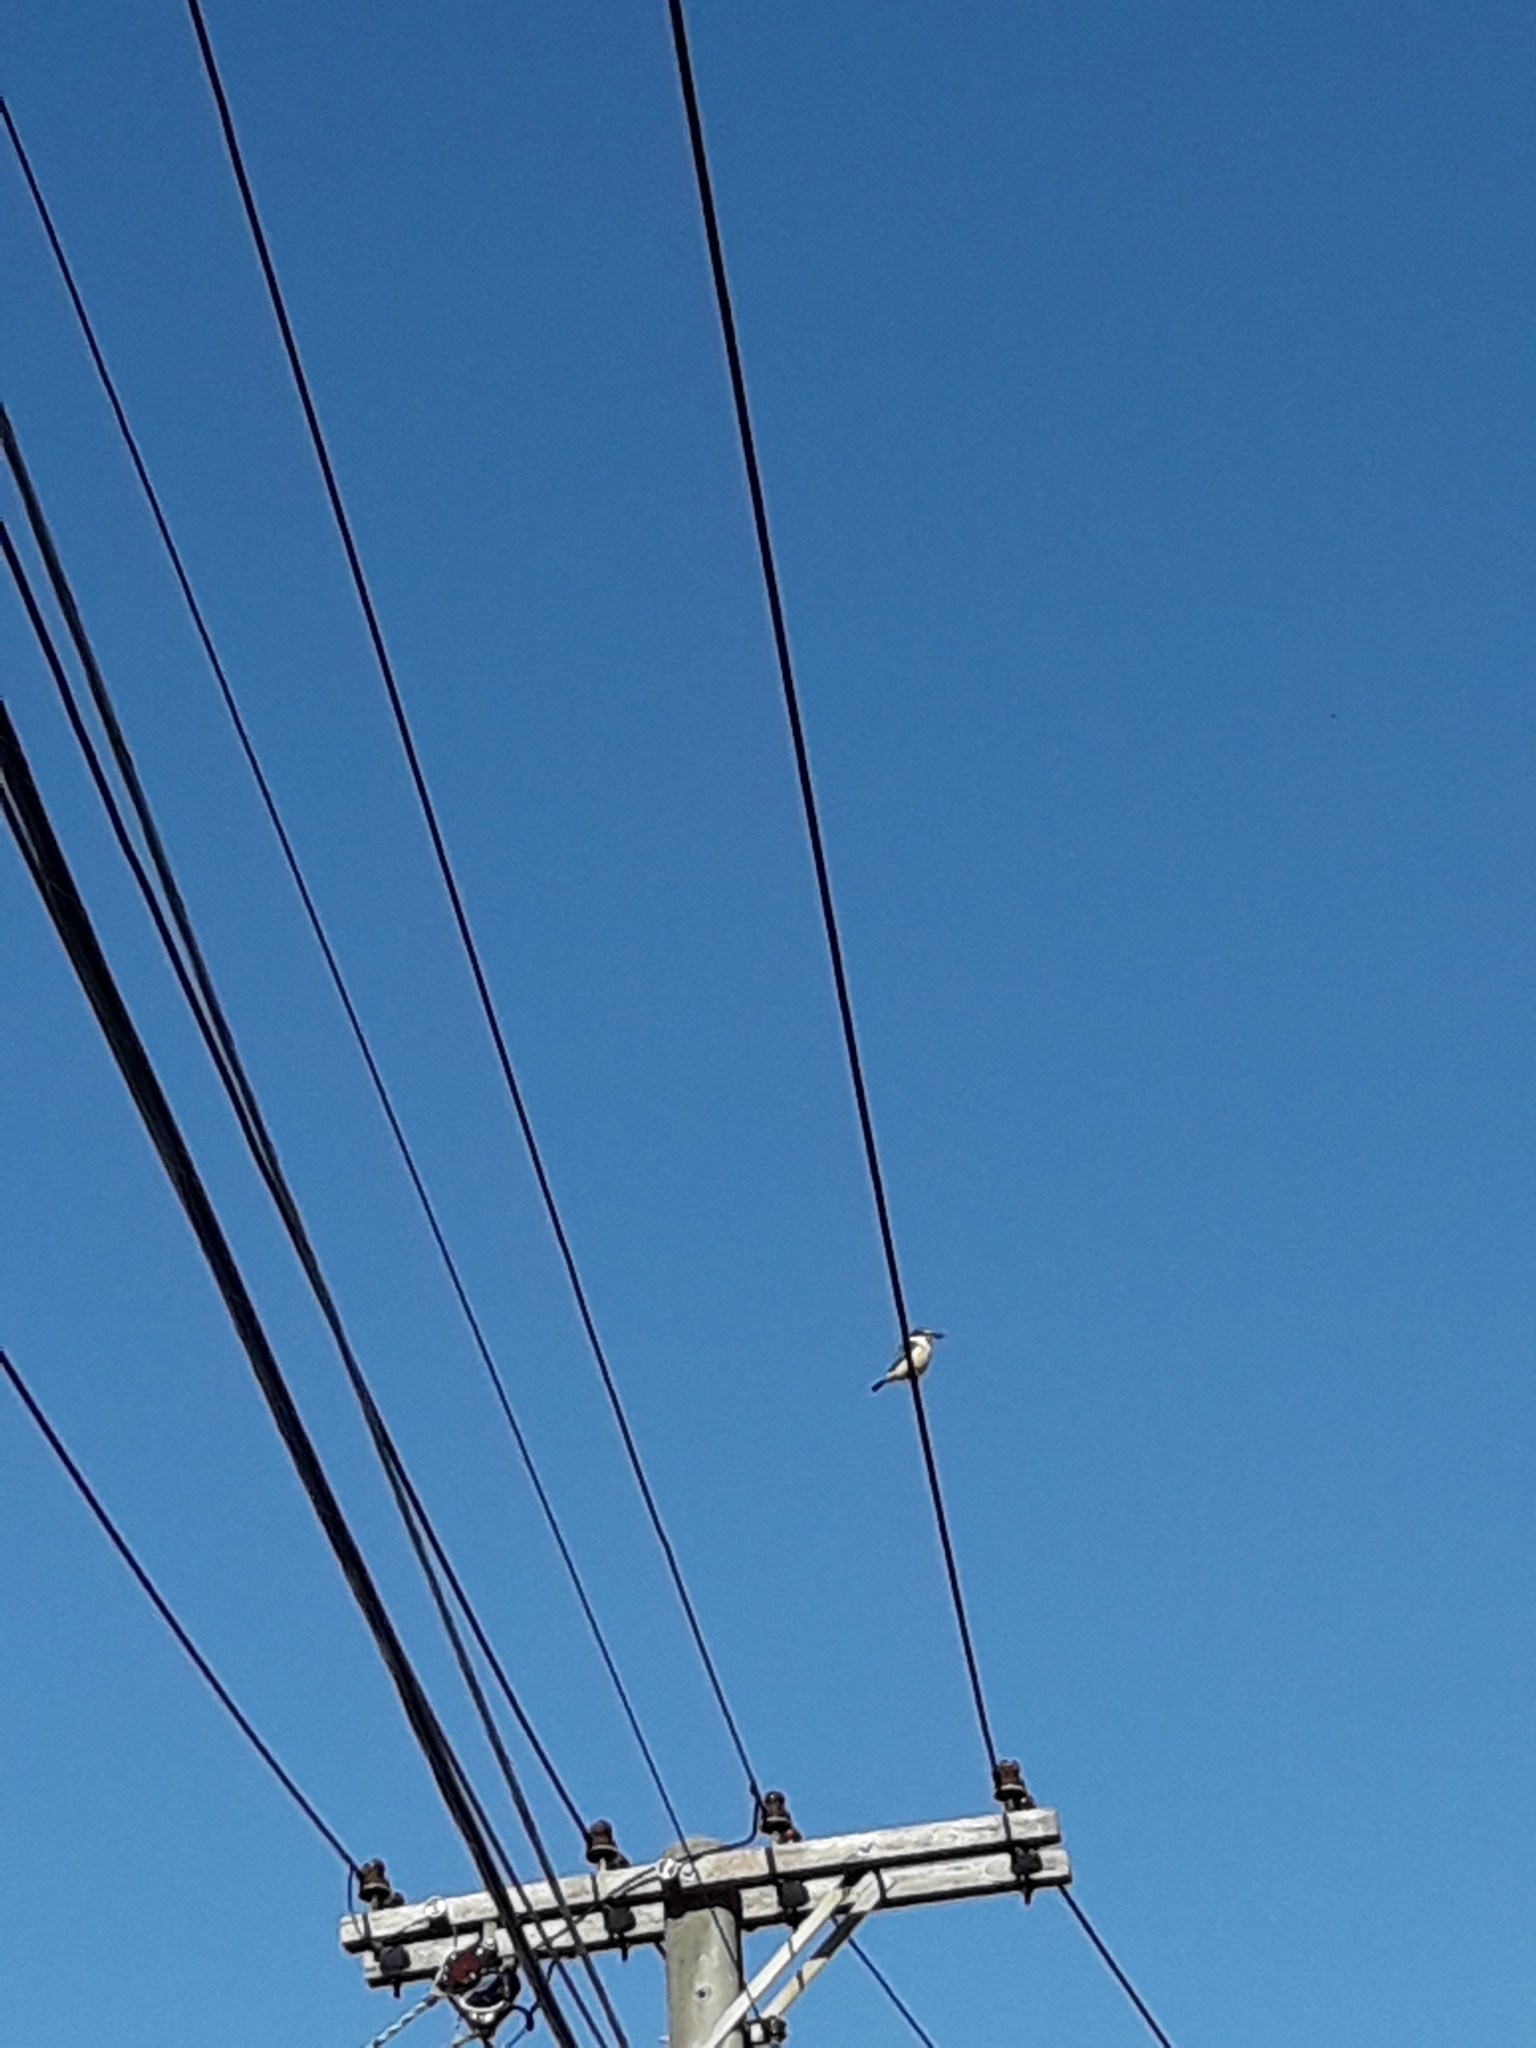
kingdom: Animalia
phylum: Chordata
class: Aves
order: Coraciiformes
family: Alcedinidae
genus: Todiramphus
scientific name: Todiramphus sanctus
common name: Sacred kingfisher
